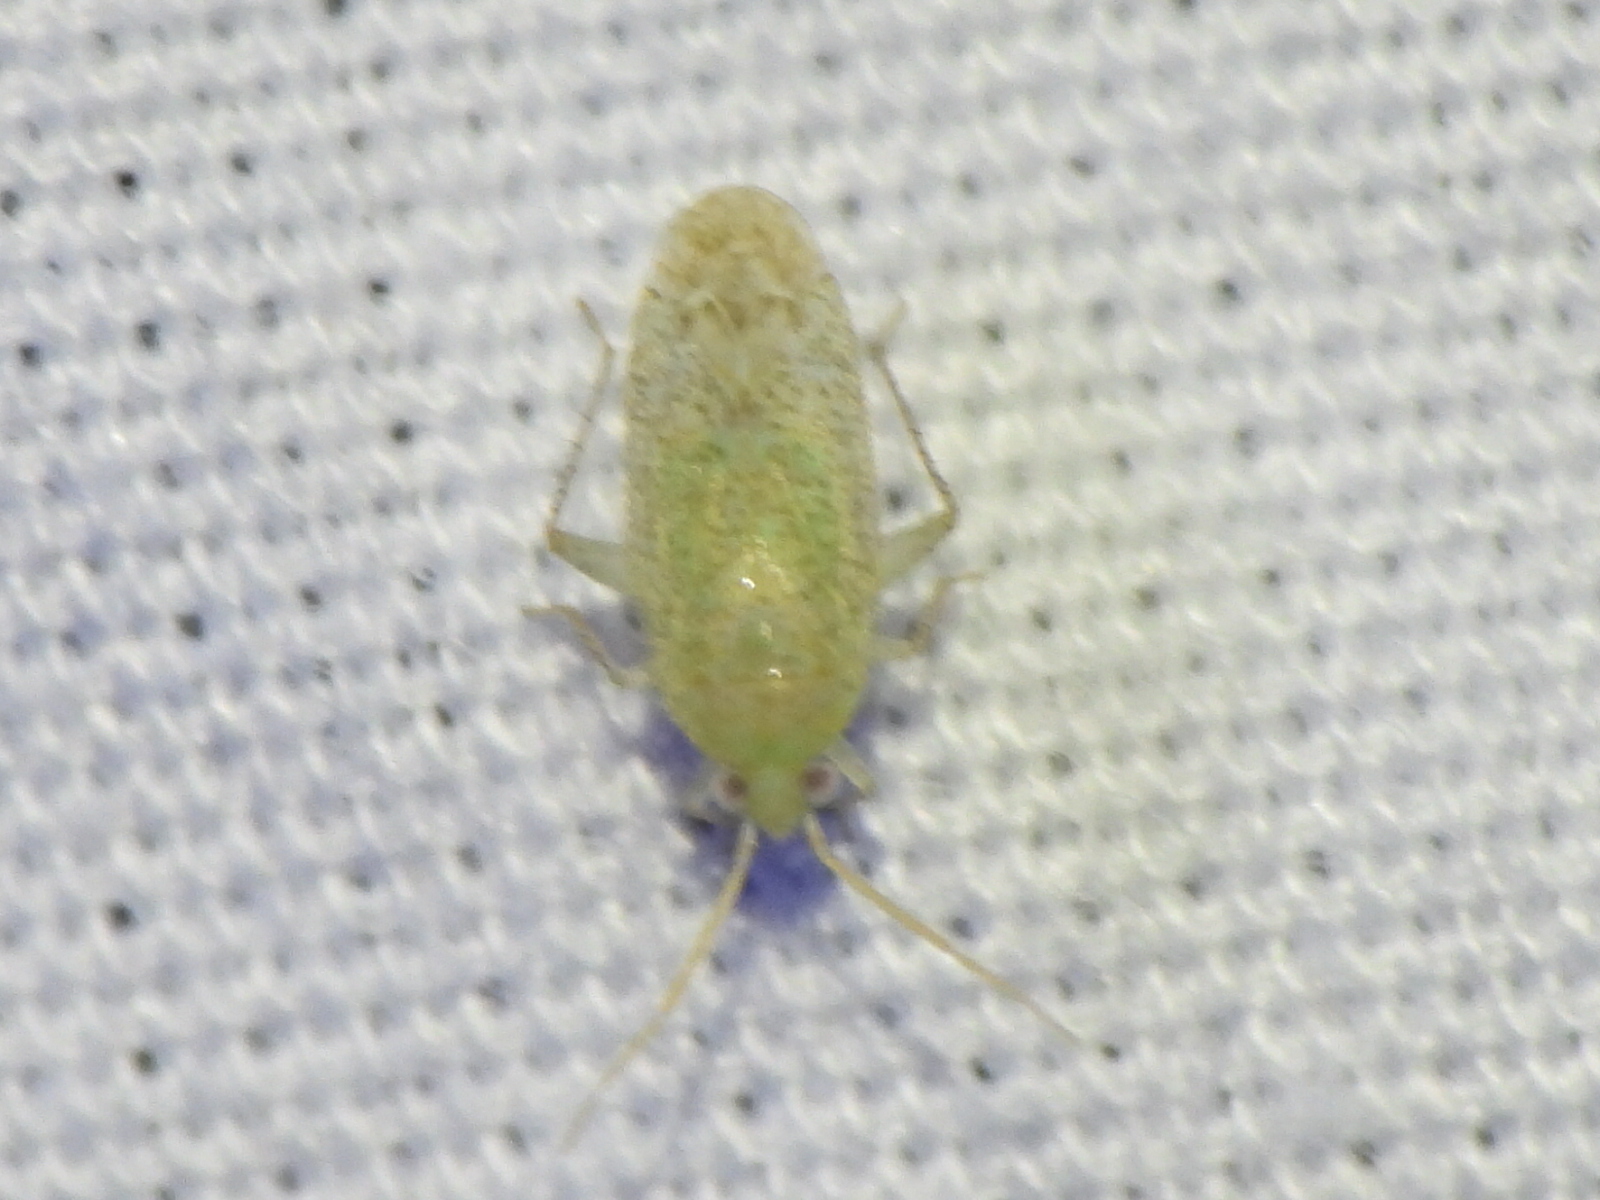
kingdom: Animalia
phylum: Arthropoda
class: Insecta
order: Hemiptera
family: Miridae
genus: Pseudatomoscelis
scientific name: Pseudatomoscelis seriatus
